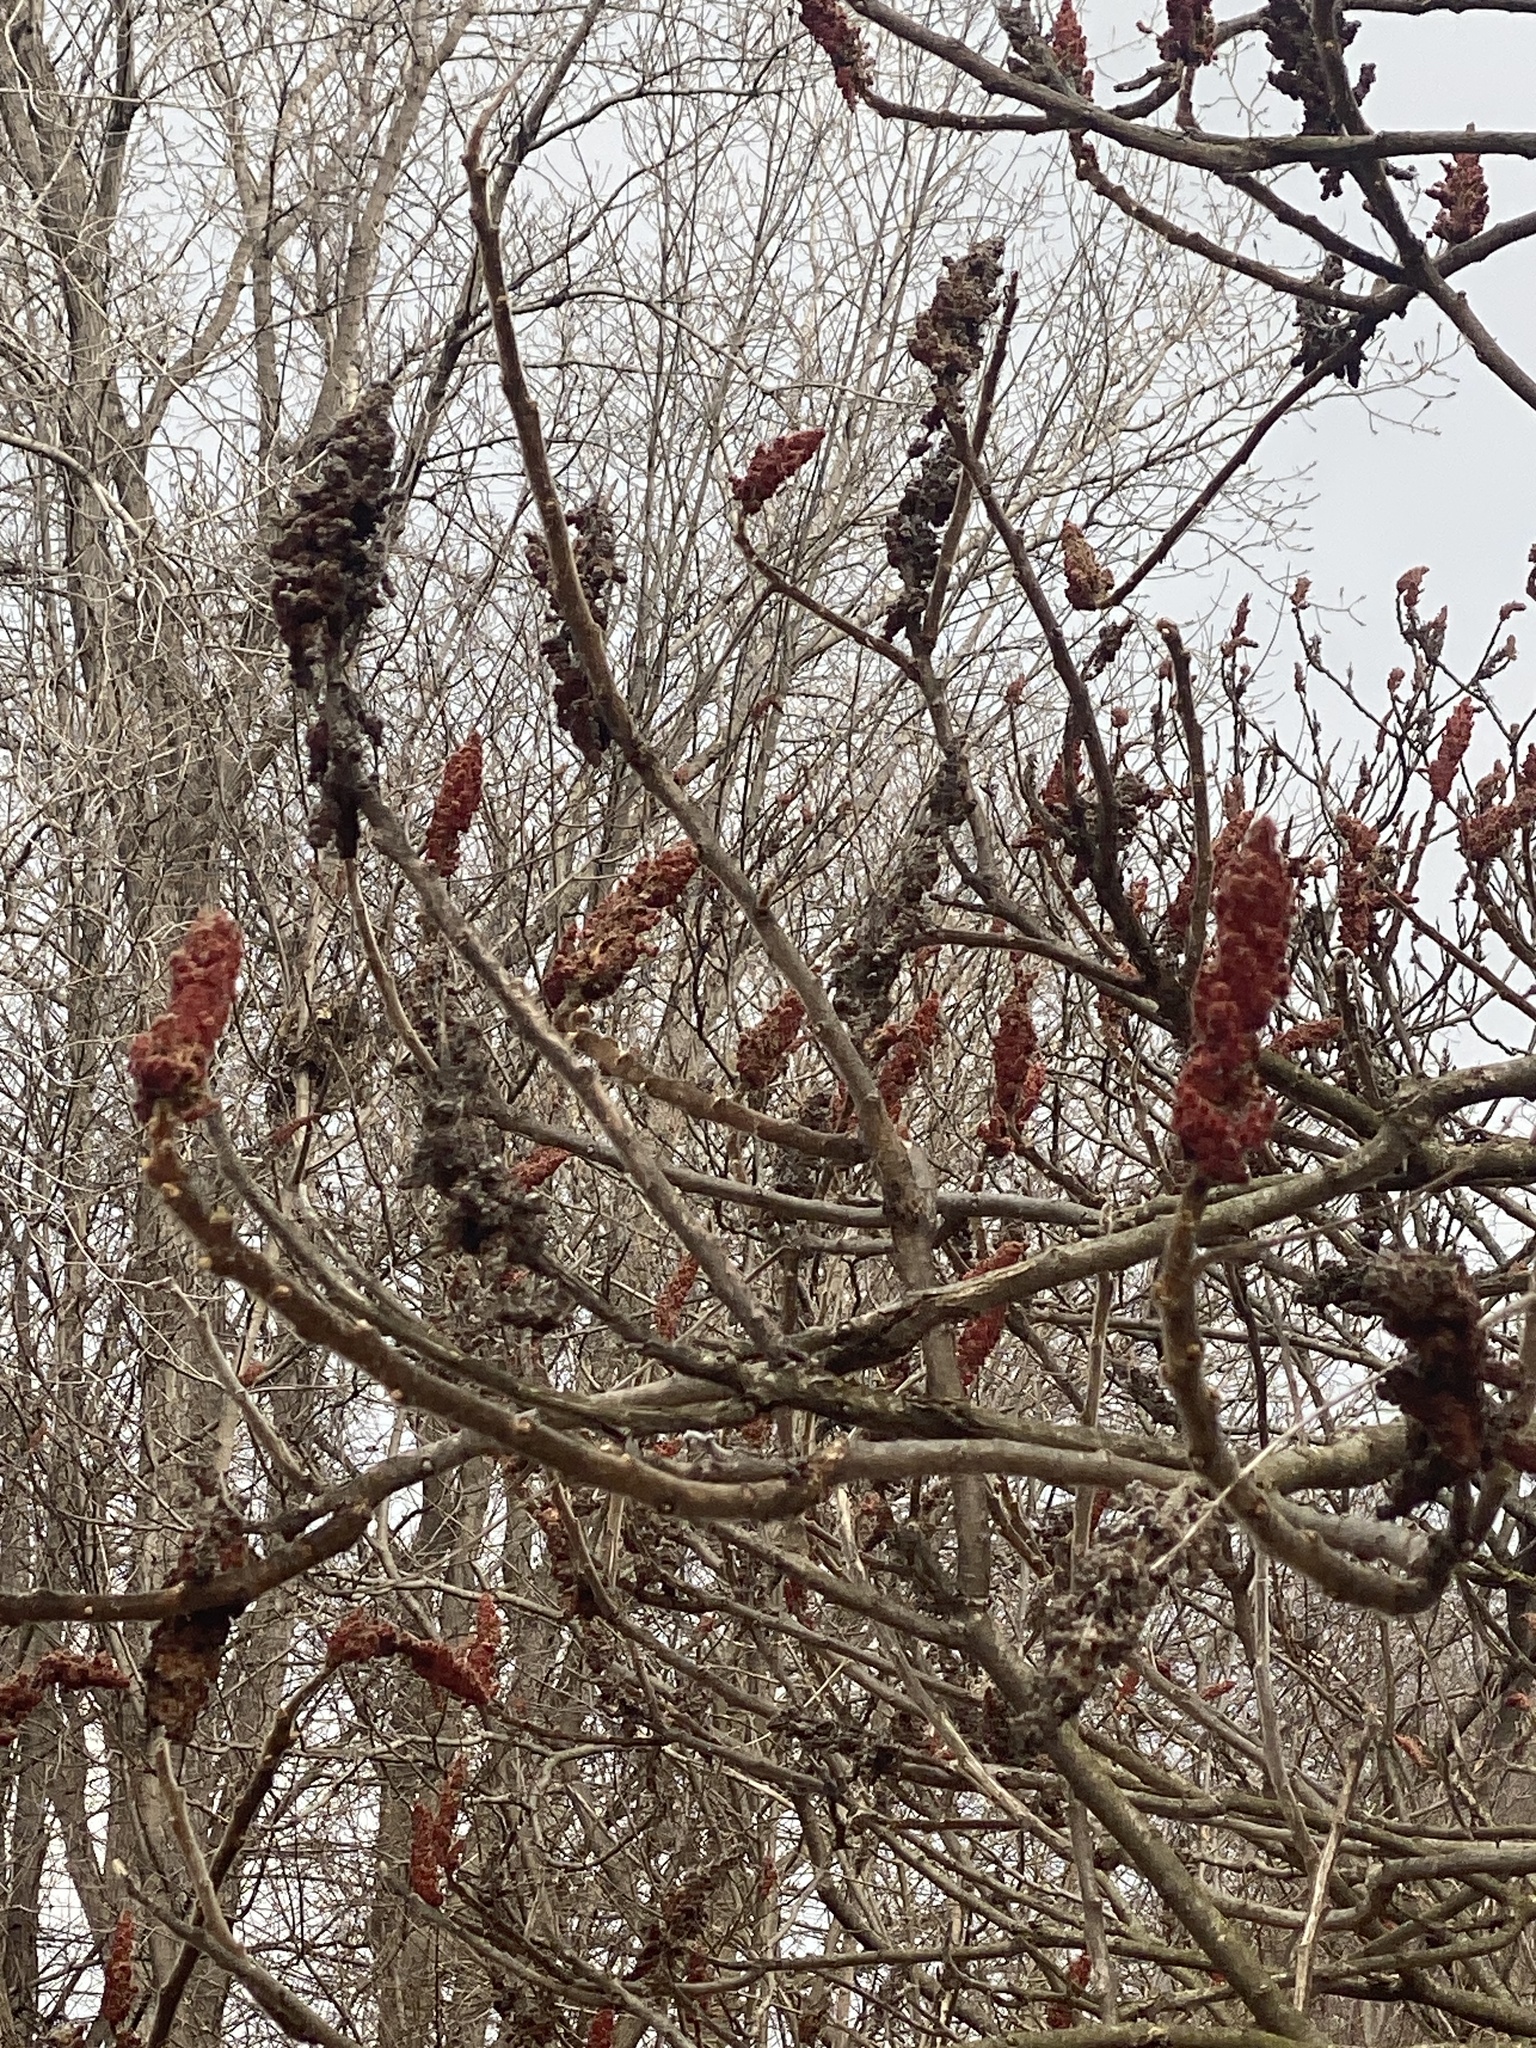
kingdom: Plantae
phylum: Tracheophyta
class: Magnoliopsida
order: Sapindales
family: Anacardiaceae
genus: Rhus
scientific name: Rhus typhina
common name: Staghorn sumac
